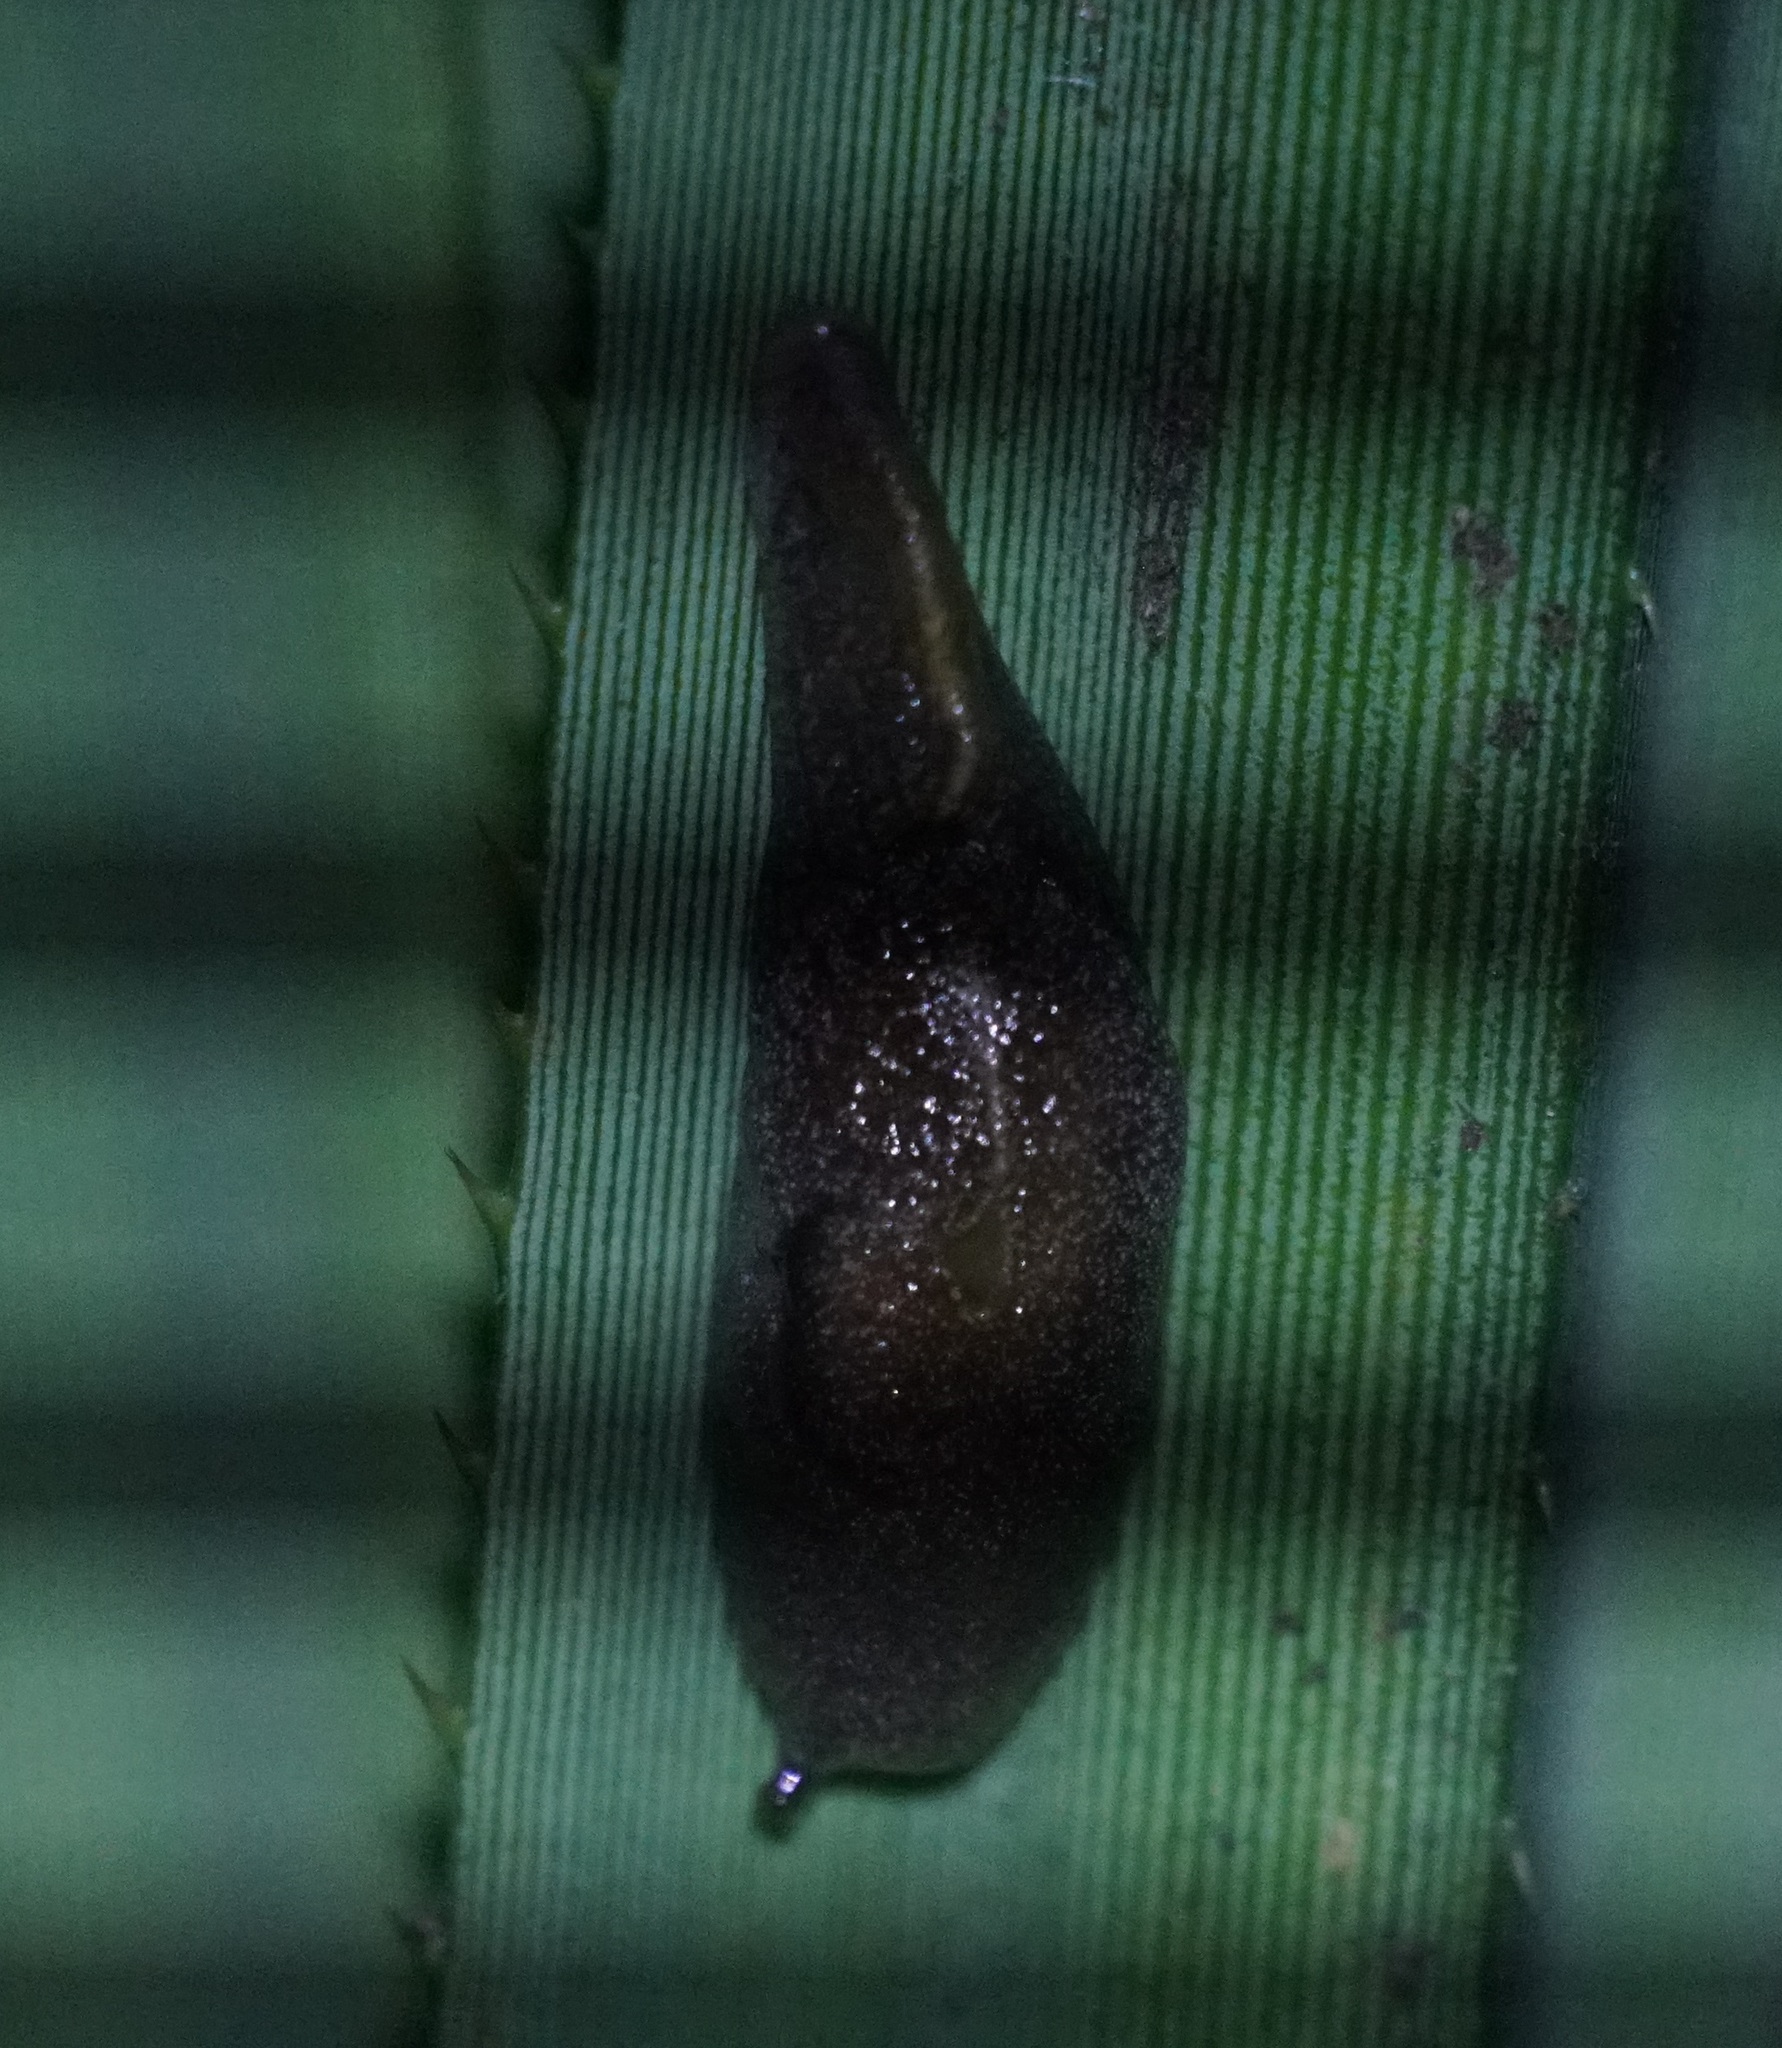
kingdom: Animalia
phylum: Mollusca
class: Gastropoda
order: Stylommatophora
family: Helicarionidae
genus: Parmacochlea
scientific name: Parmacochlea furca
